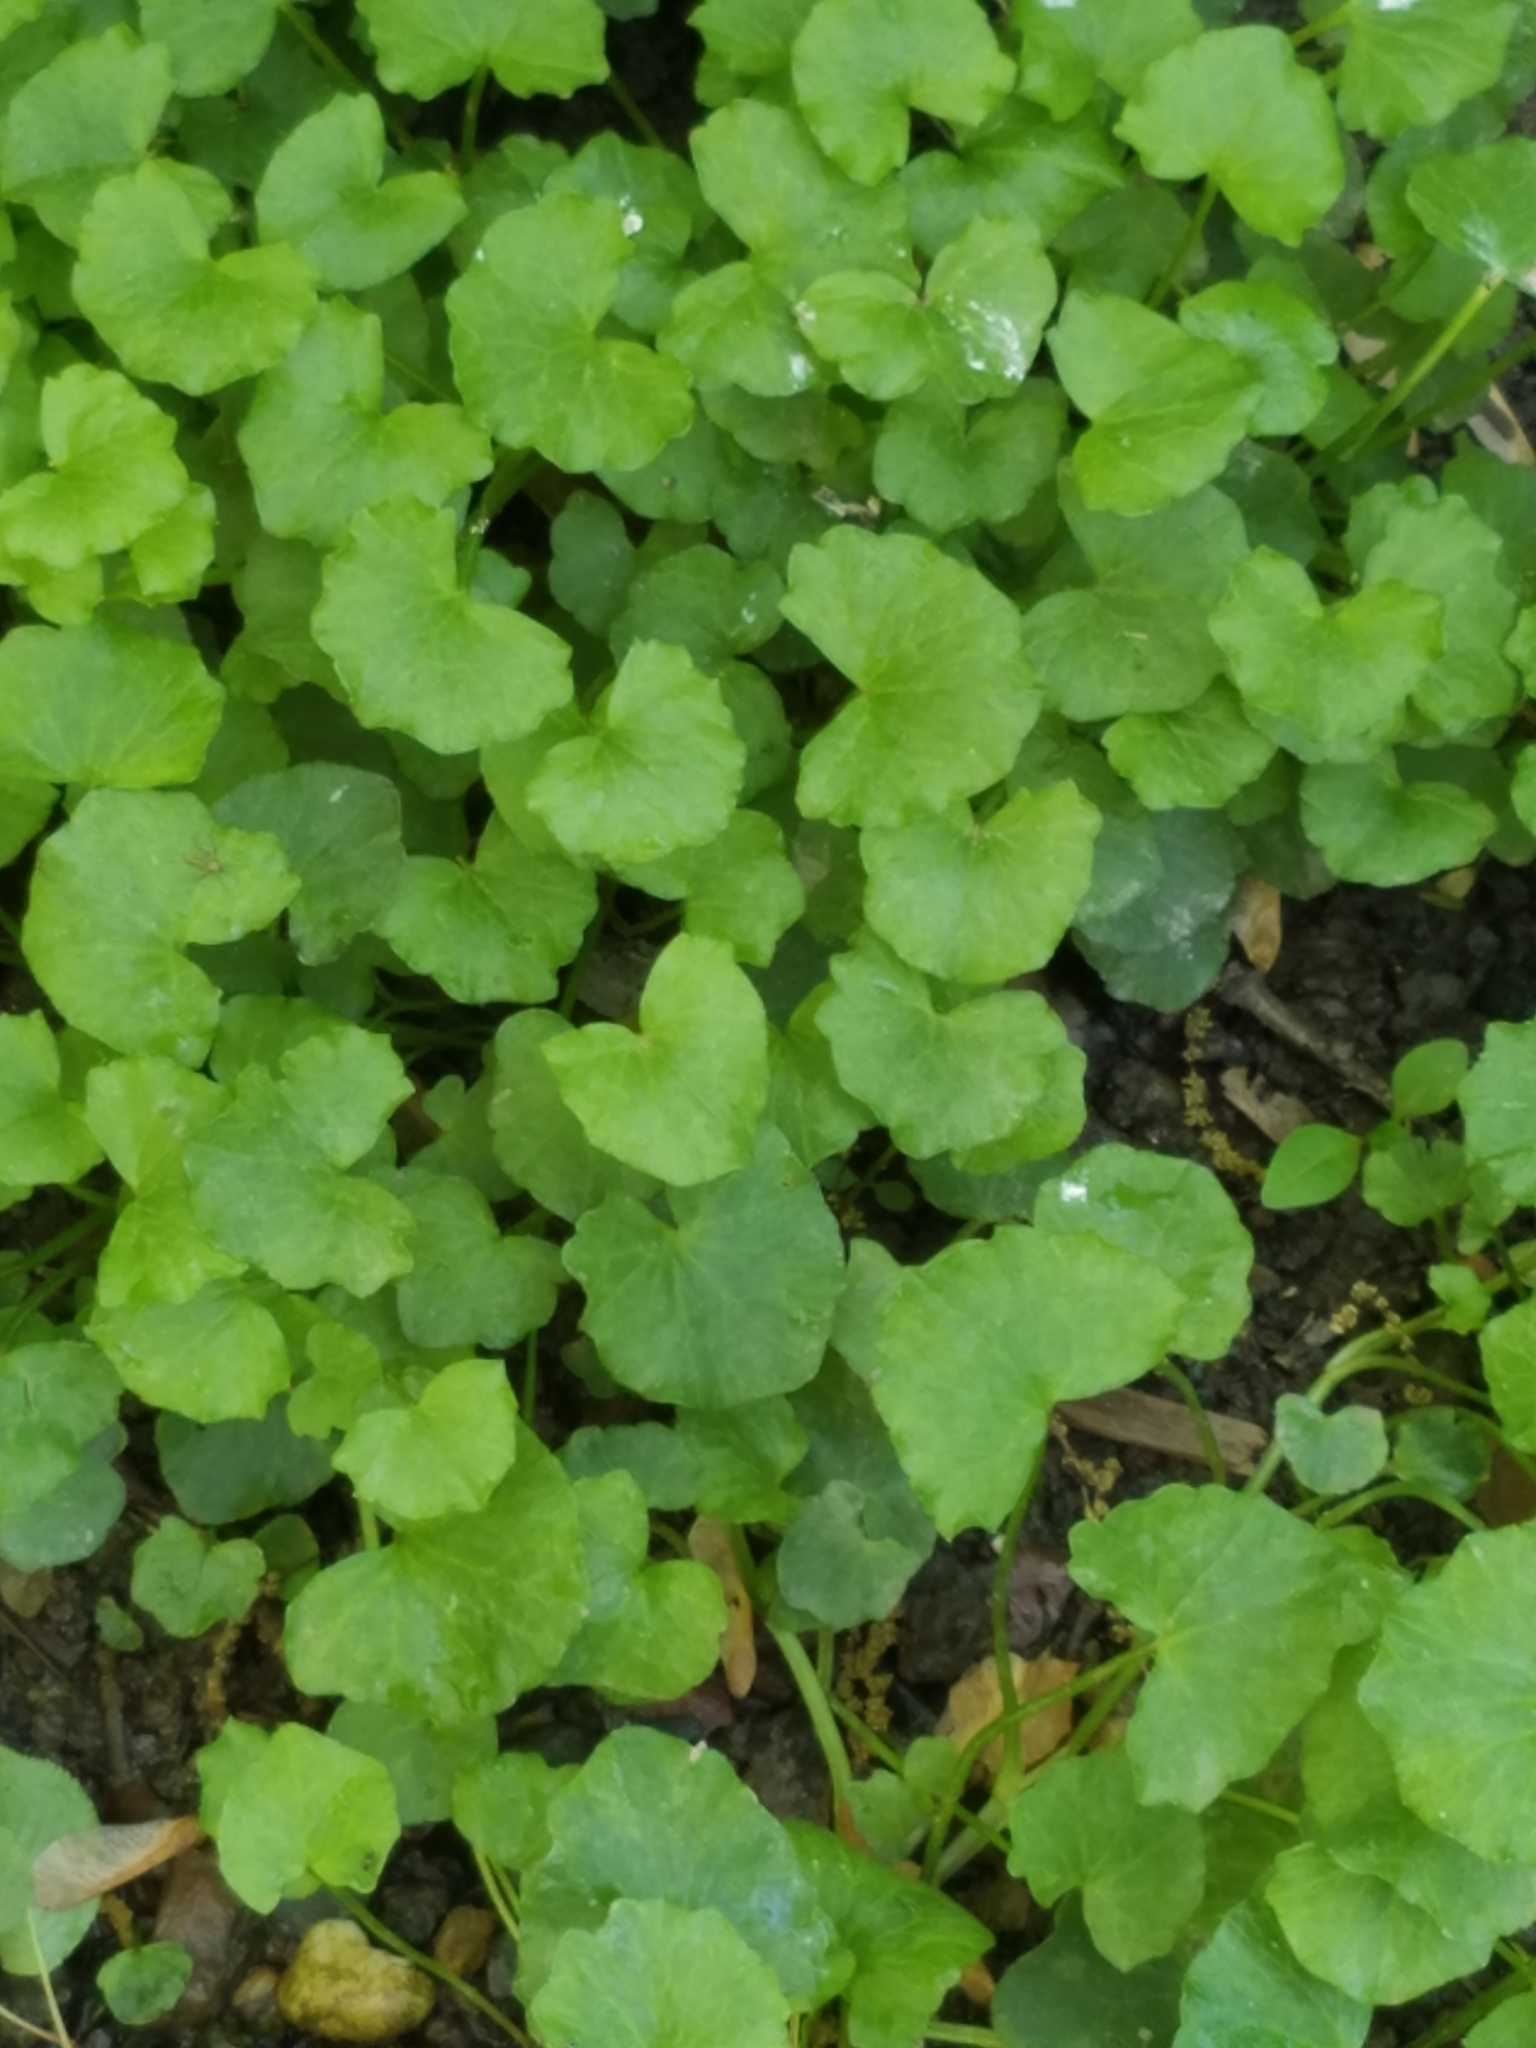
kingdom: Plantae
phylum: Tracheophyta
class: Magnoliopsida
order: Ranunculales
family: Ranunculaceae
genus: Ficaria
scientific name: Ficaria verna
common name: Lesser celandine
